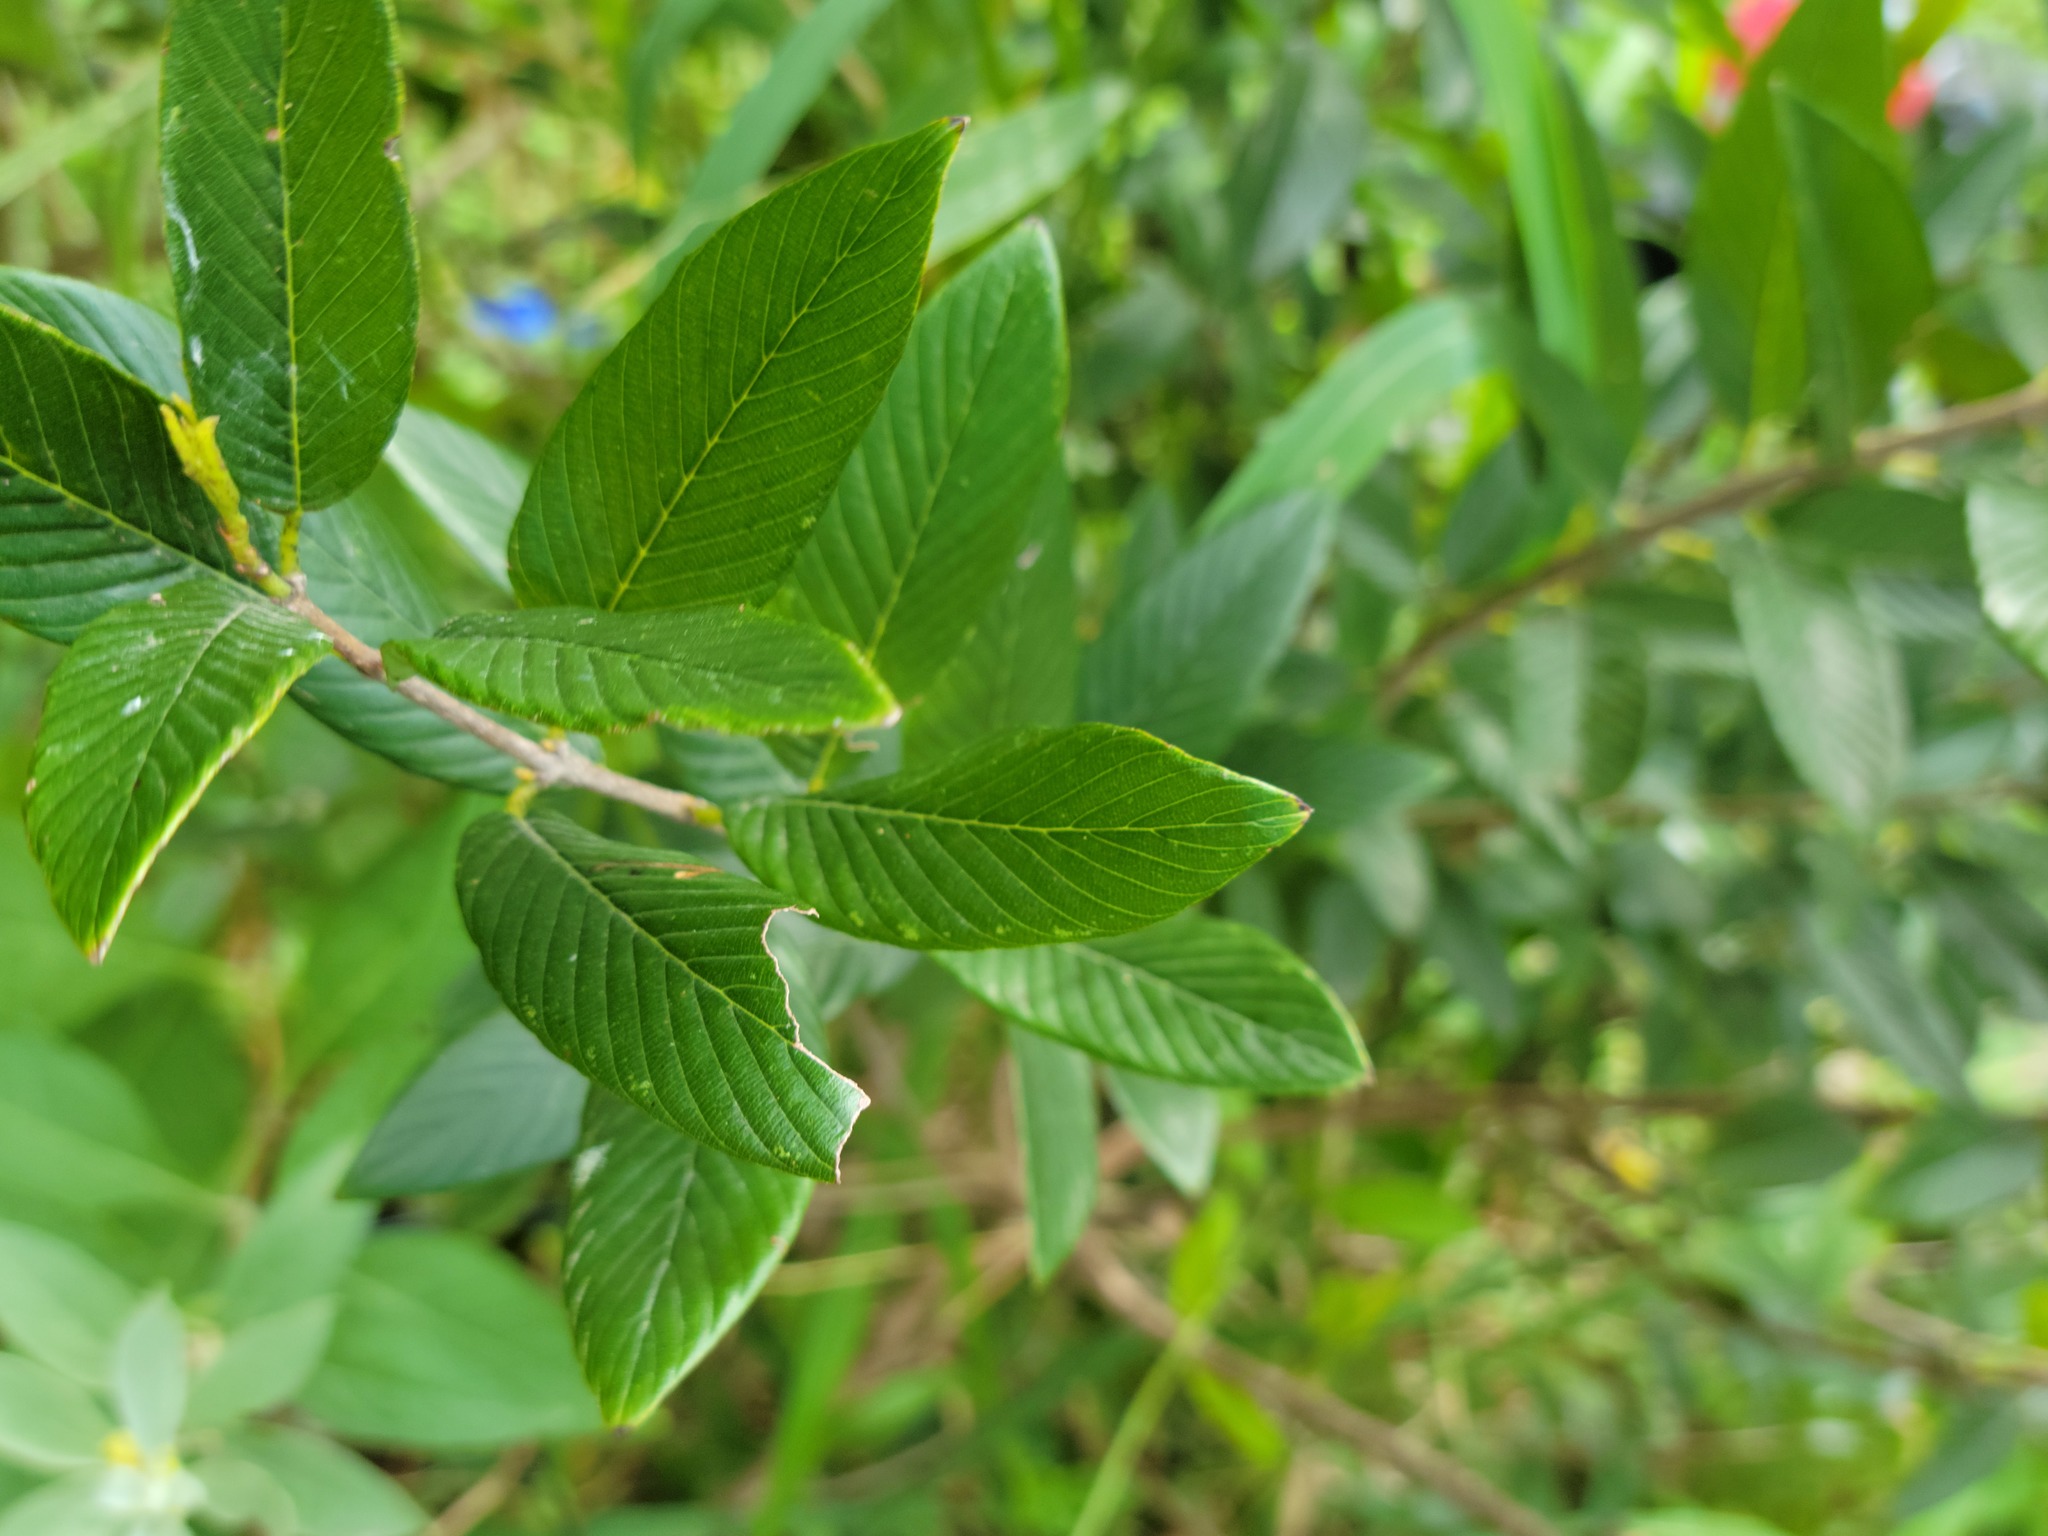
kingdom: Plantae
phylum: Tracheophyta
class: Magnoliopsida
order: Rosales
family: Rhamnaceae
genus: Karwinskia
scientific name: Karwinskia humboldtiana
